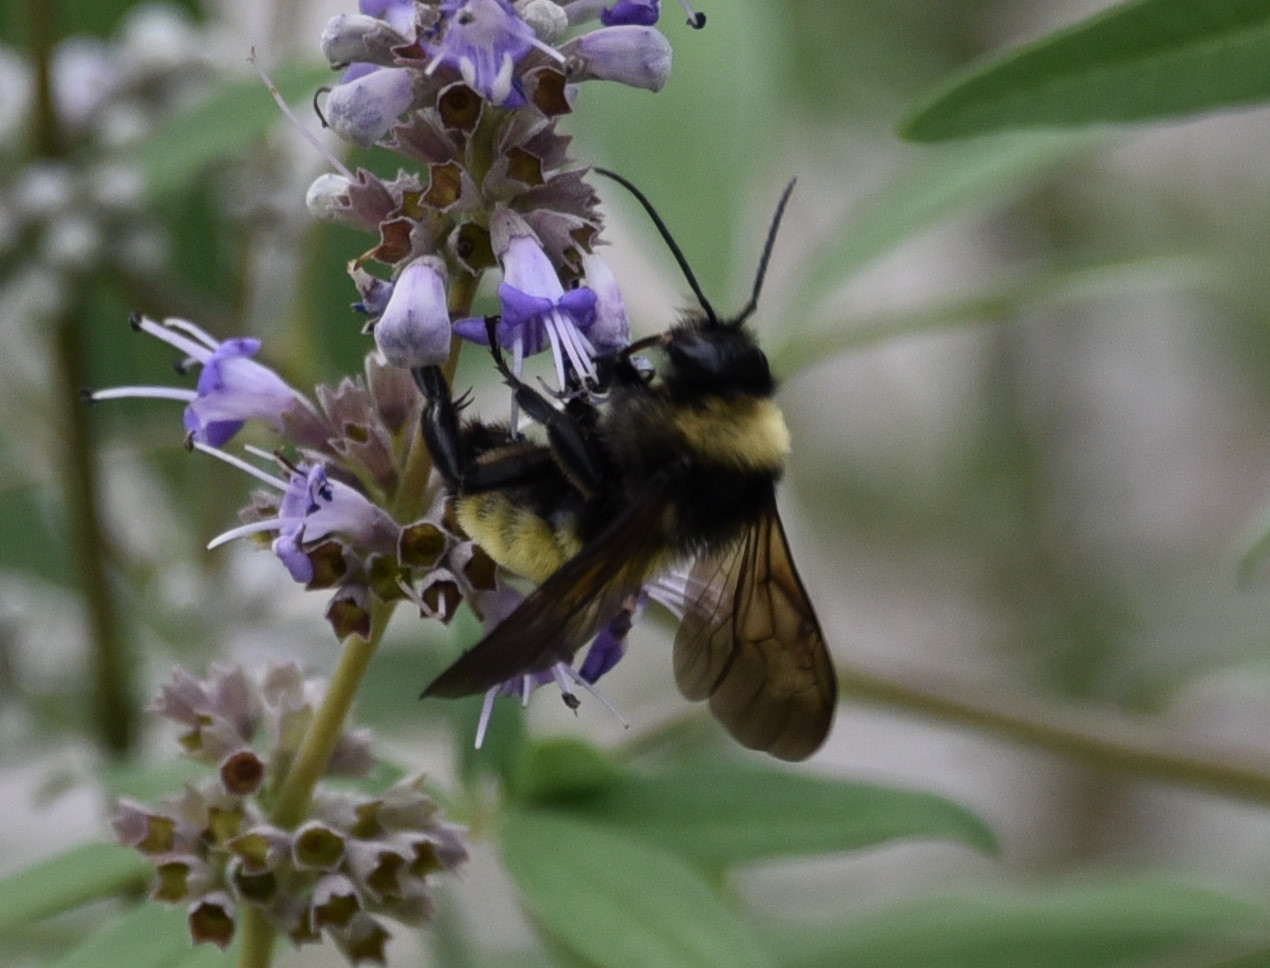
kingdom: Animalia
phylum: Arthropoda
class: Insecta
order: Hymenoptera
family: Apidae
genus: Bombus
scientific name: Bombus pensylvanicus
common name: Bumble bee
